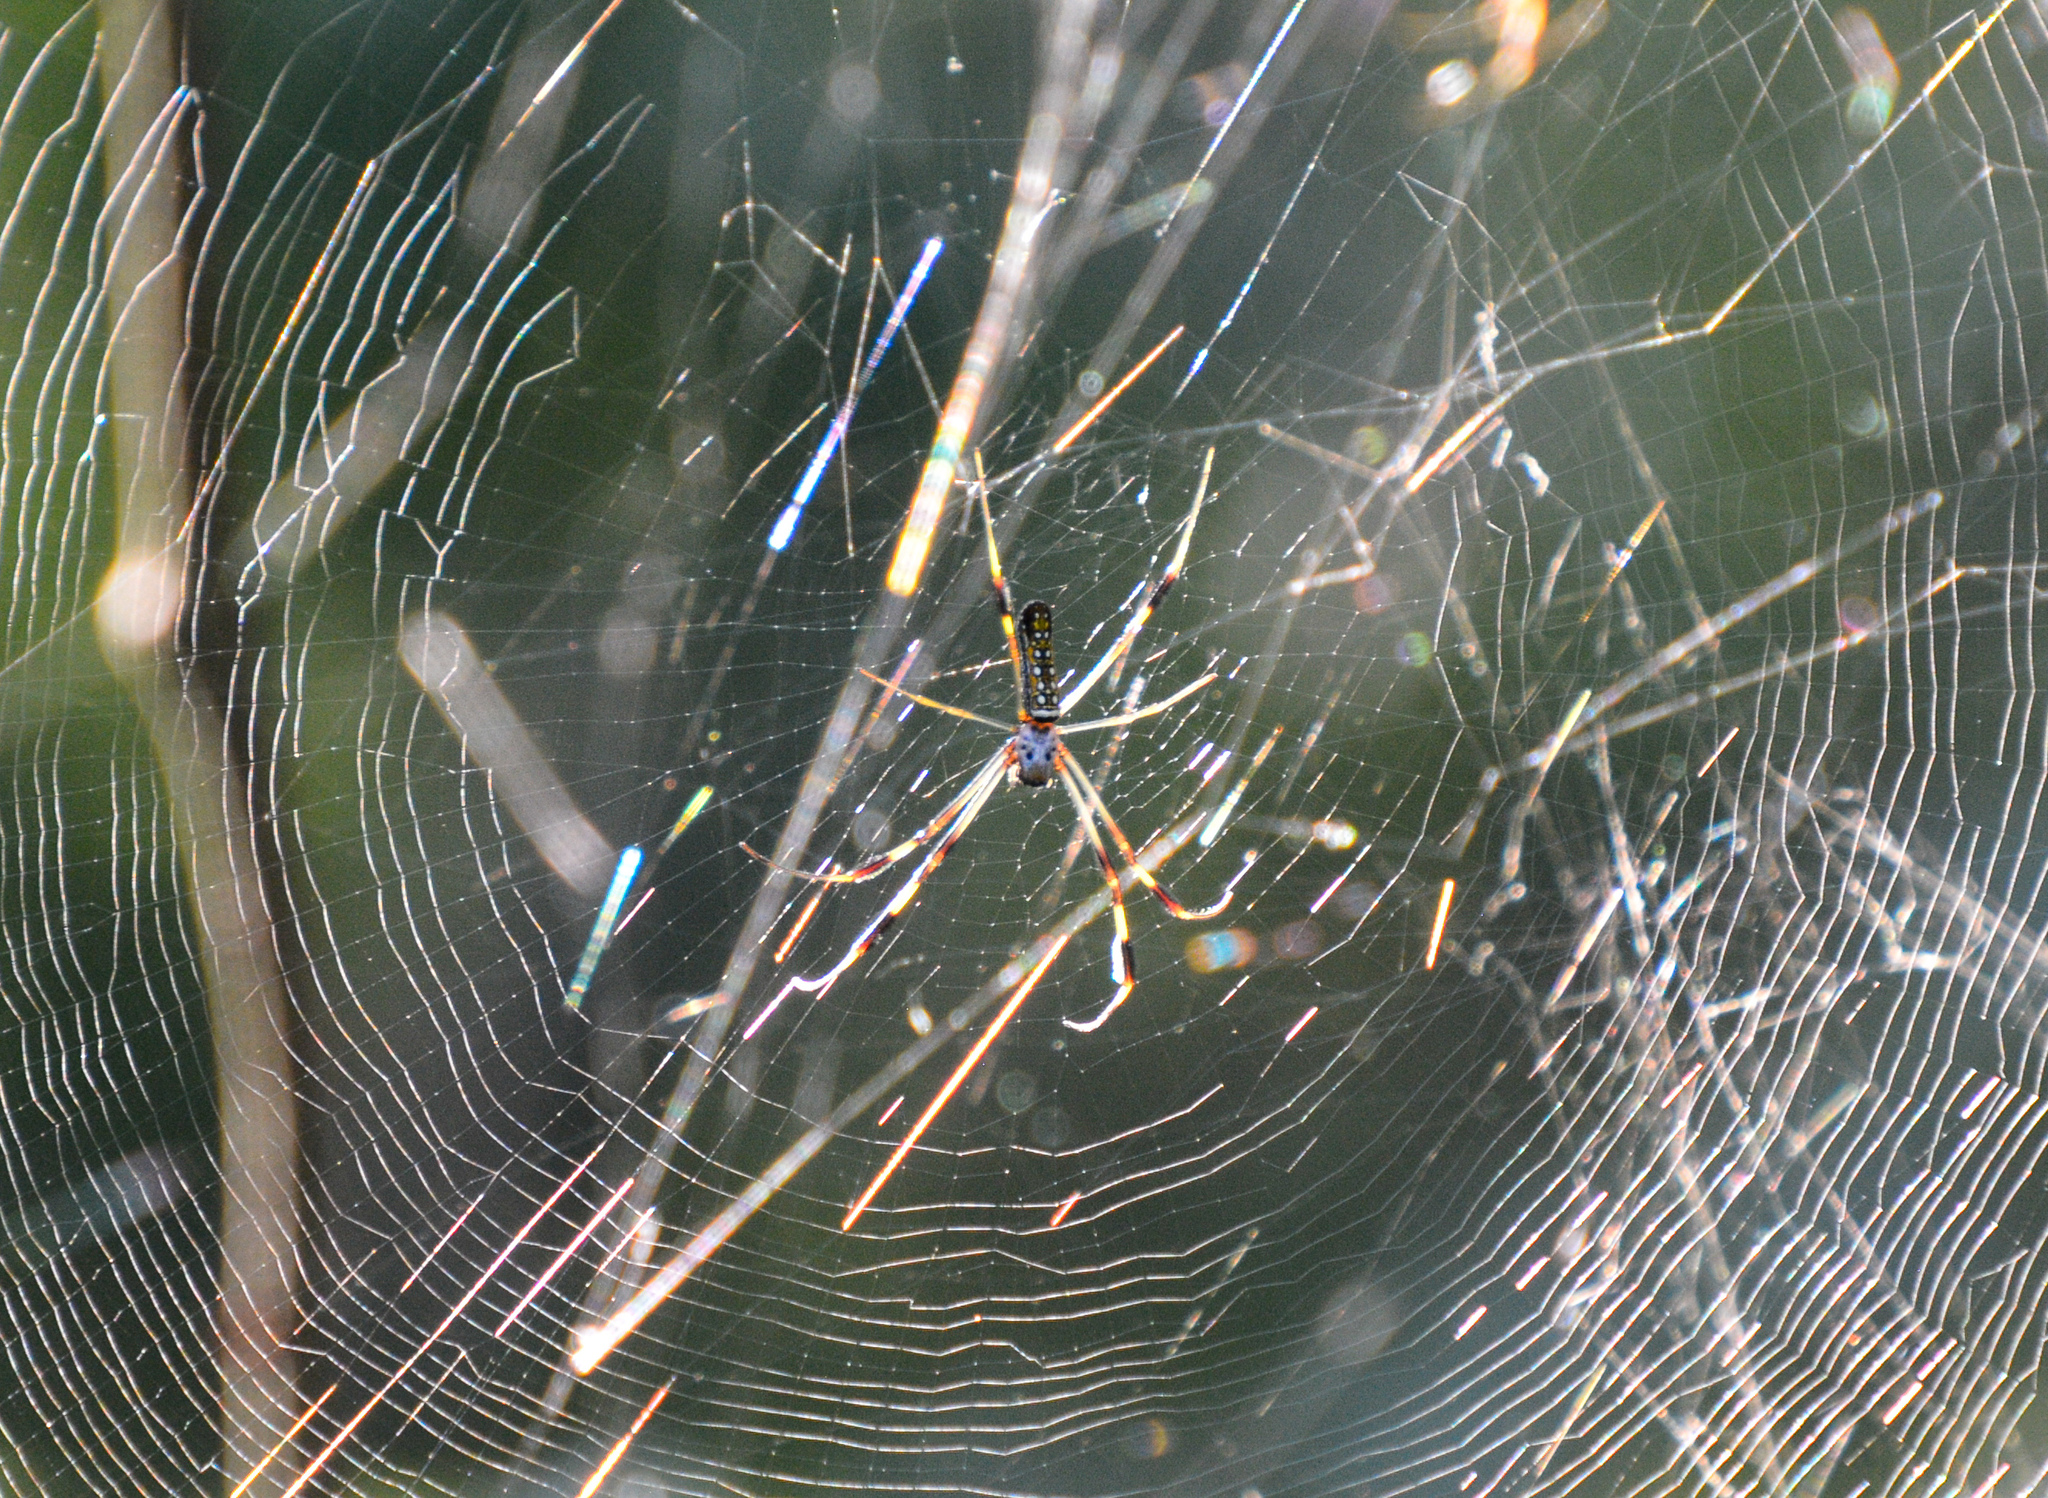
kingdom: Animalia
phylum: Arthropoda
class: Arachnida
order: Araneae
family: Araneidae
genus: Trichonephila
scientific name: Trichonephila clavipes
